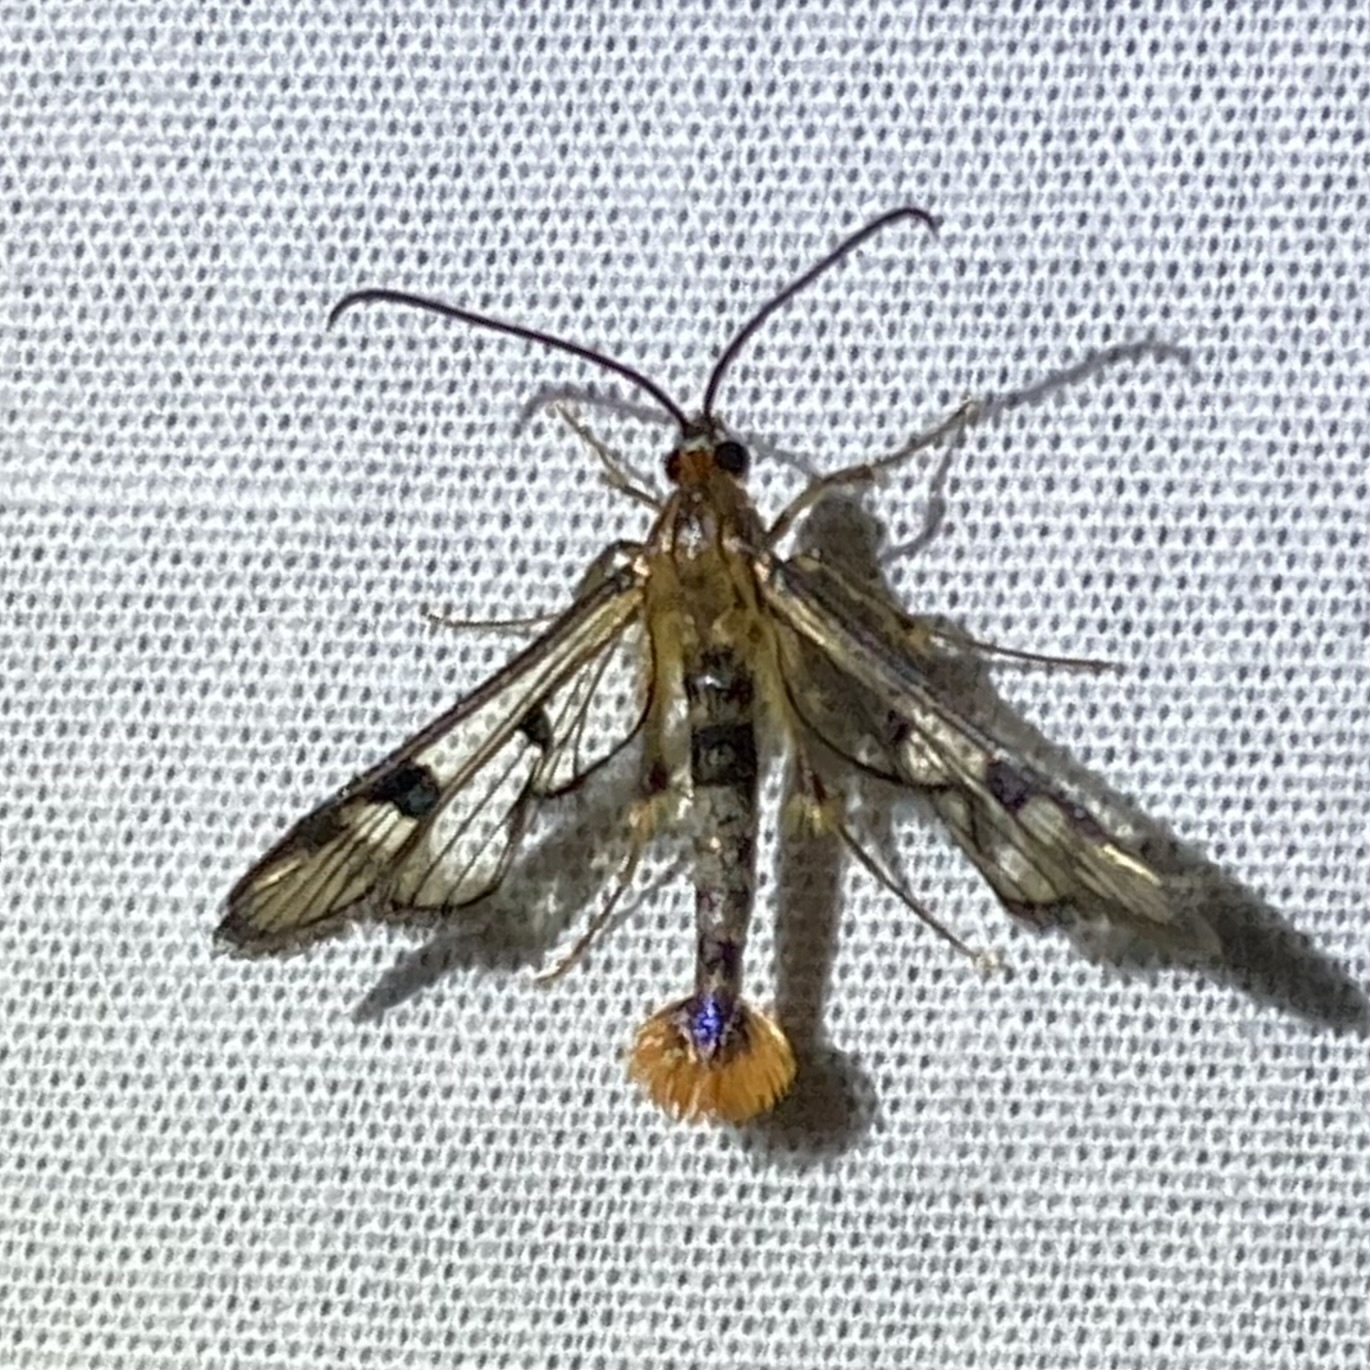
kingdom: Animalia
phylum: Arthropoda
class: Insecta
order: Lepidoptera
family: Sesiidae
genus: Synanthedon
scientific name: Synanthedon acerni
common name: Maple callus borer moth
